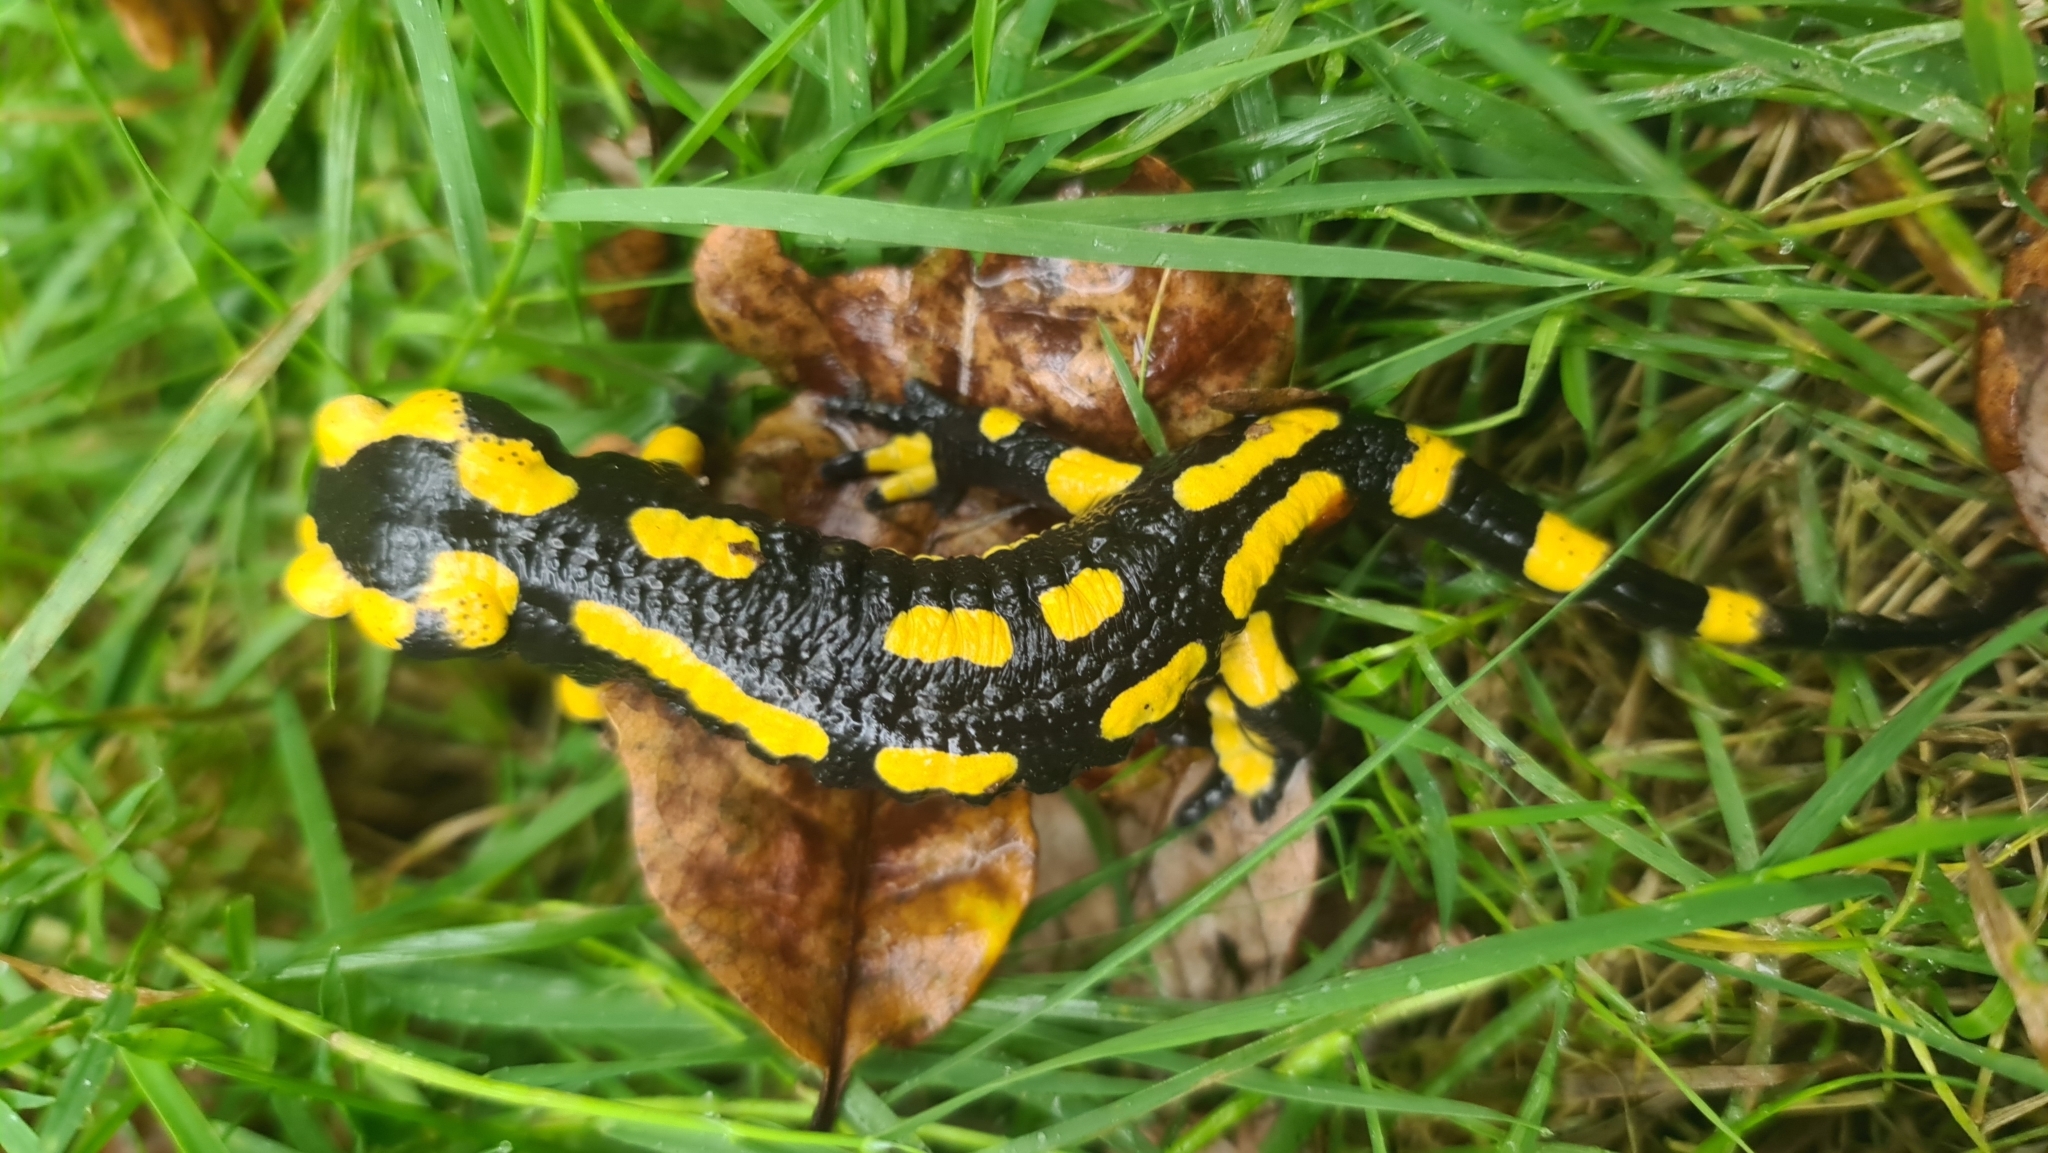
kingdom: Animalia
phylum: Chordata
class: Amphibia
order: Caudata
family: Salamandridae
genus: Salamandra
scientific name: Salamandra salamandra
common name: Fire salamander
